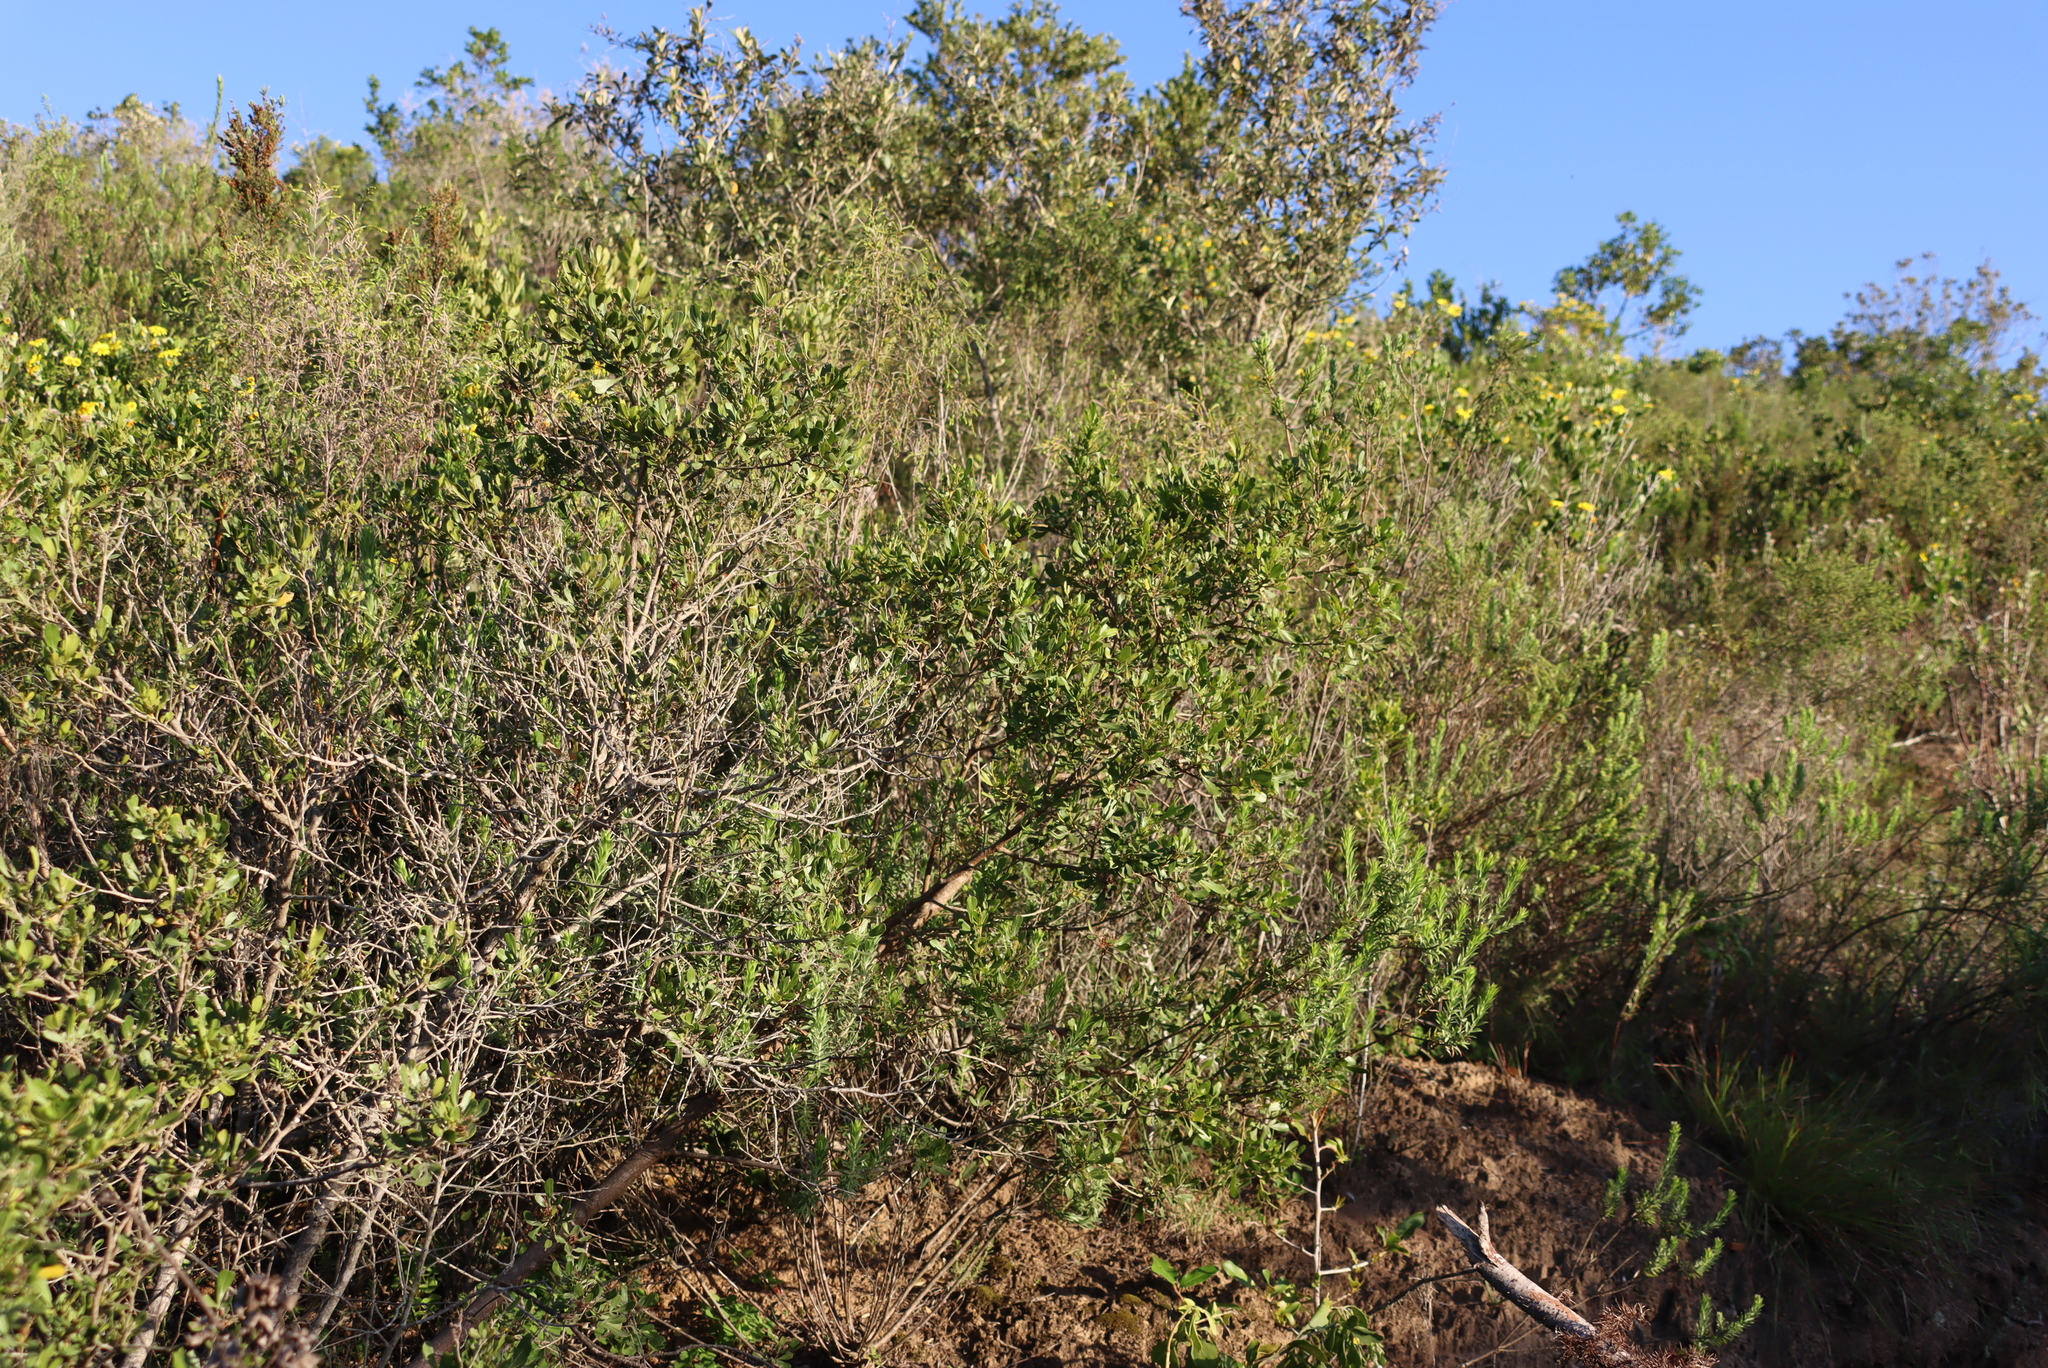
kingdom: Plantae
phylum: Tracheophyta
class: Magnoliopsida
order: Sapindales
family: Anacardiaceae
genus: Searsia
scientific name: Searsia pallens
